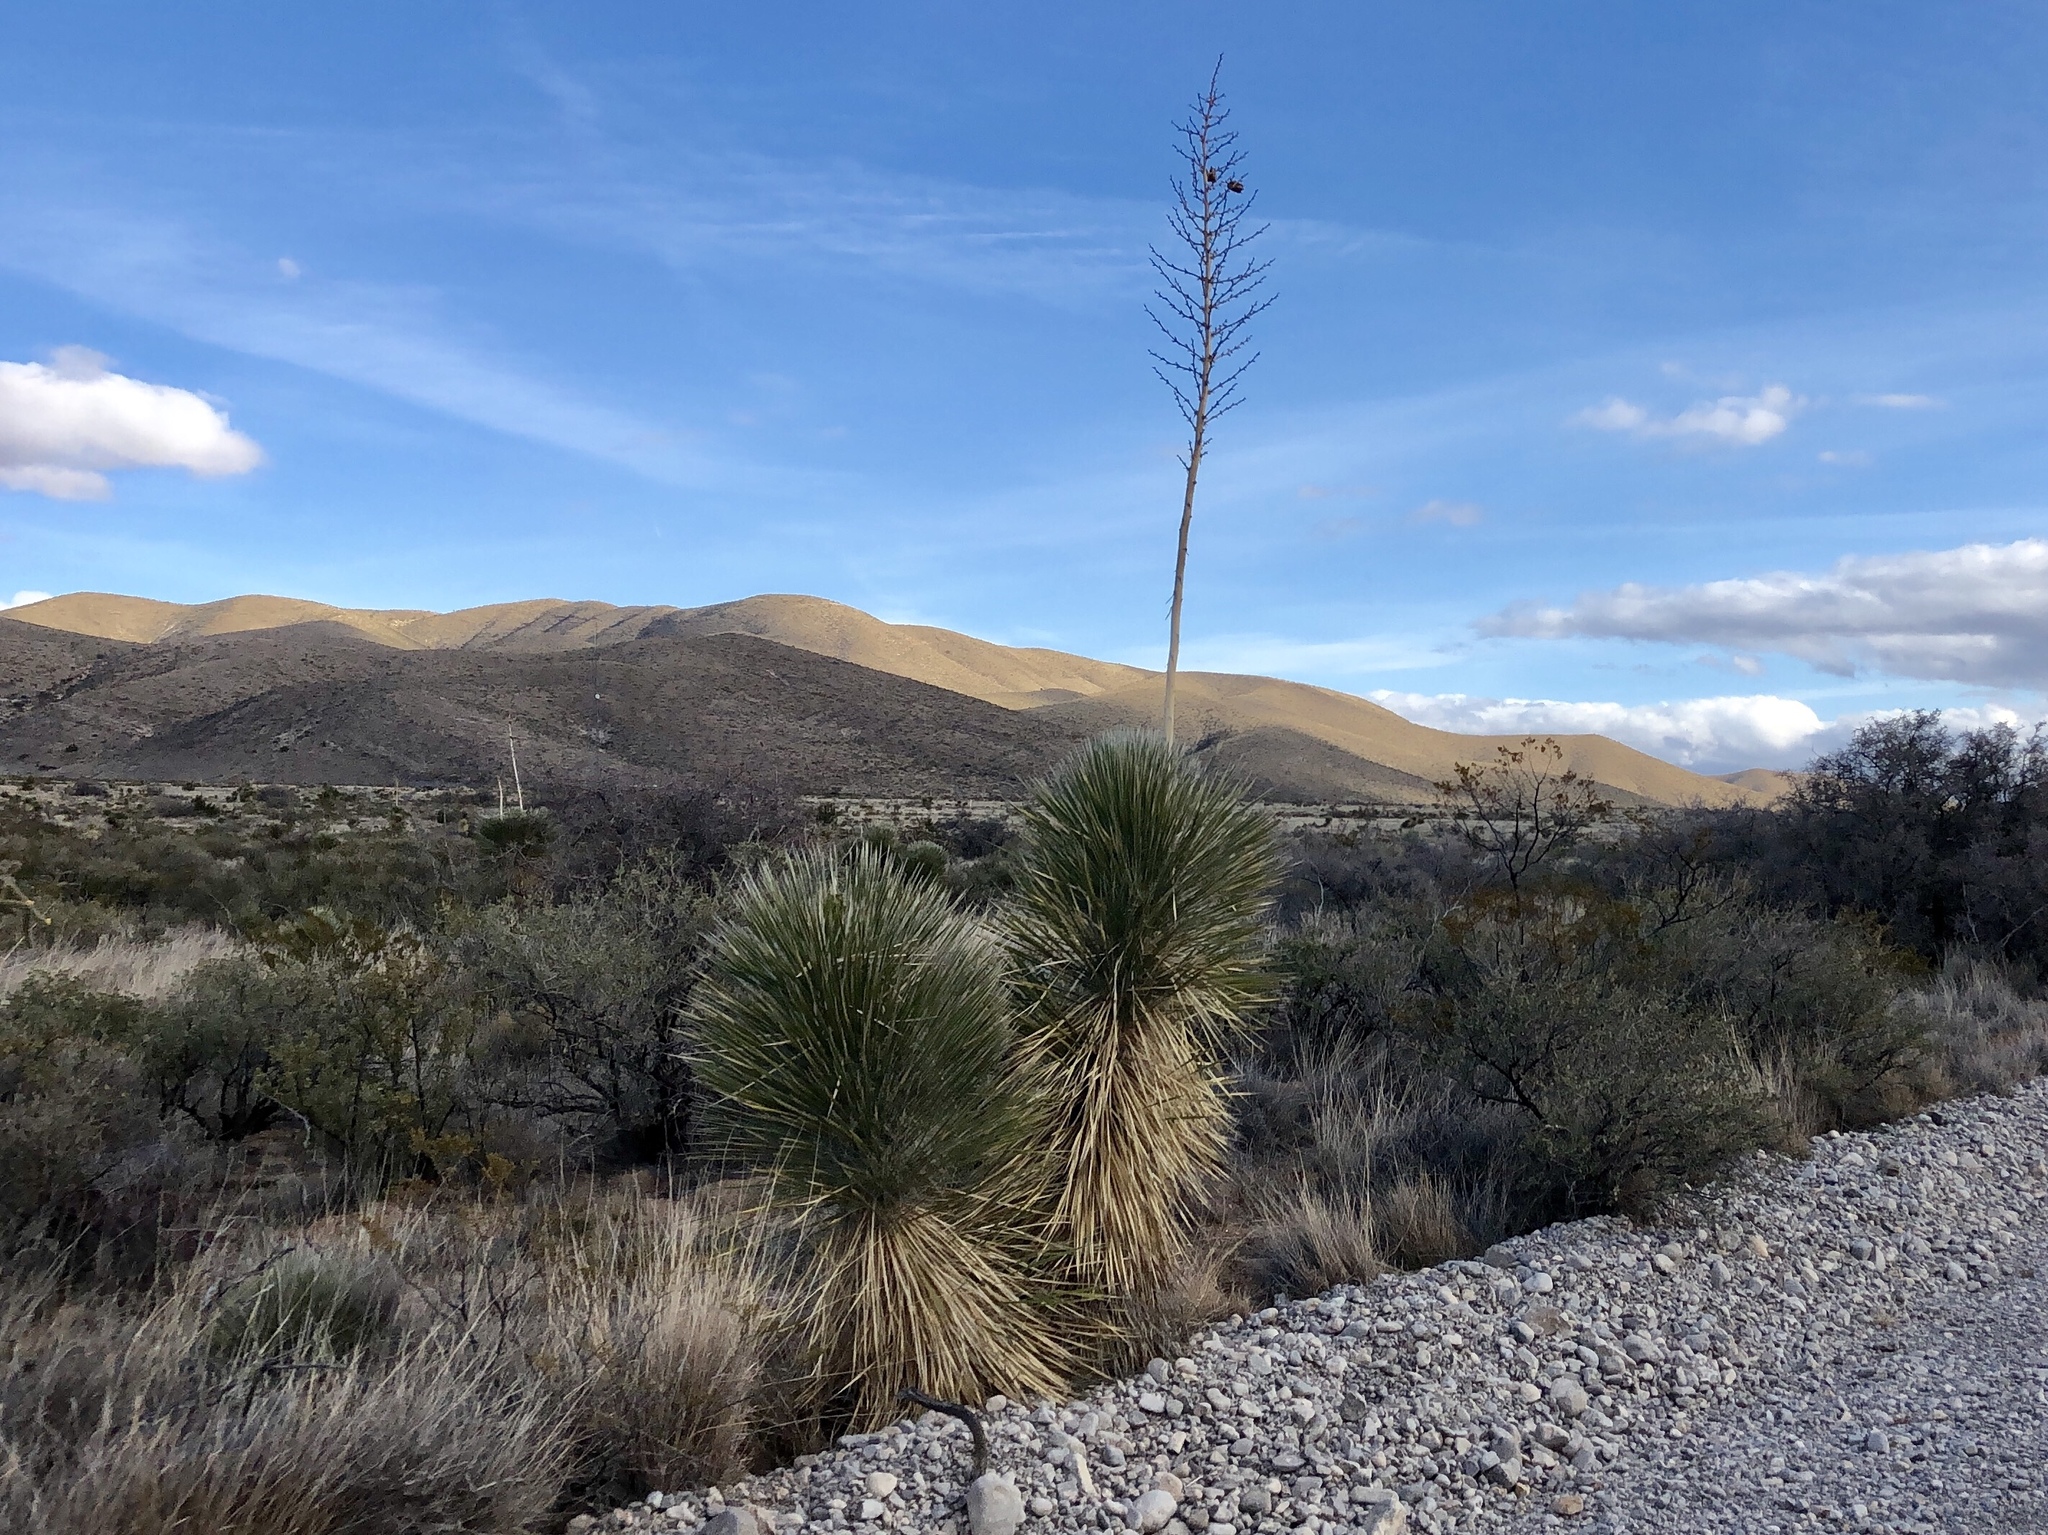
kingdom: Plantae
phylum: Tracheophyta
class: Liliopsida
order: Asparagales
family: Asparagaceae
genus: Yucca
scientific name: Yucca elata
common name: Palmella
